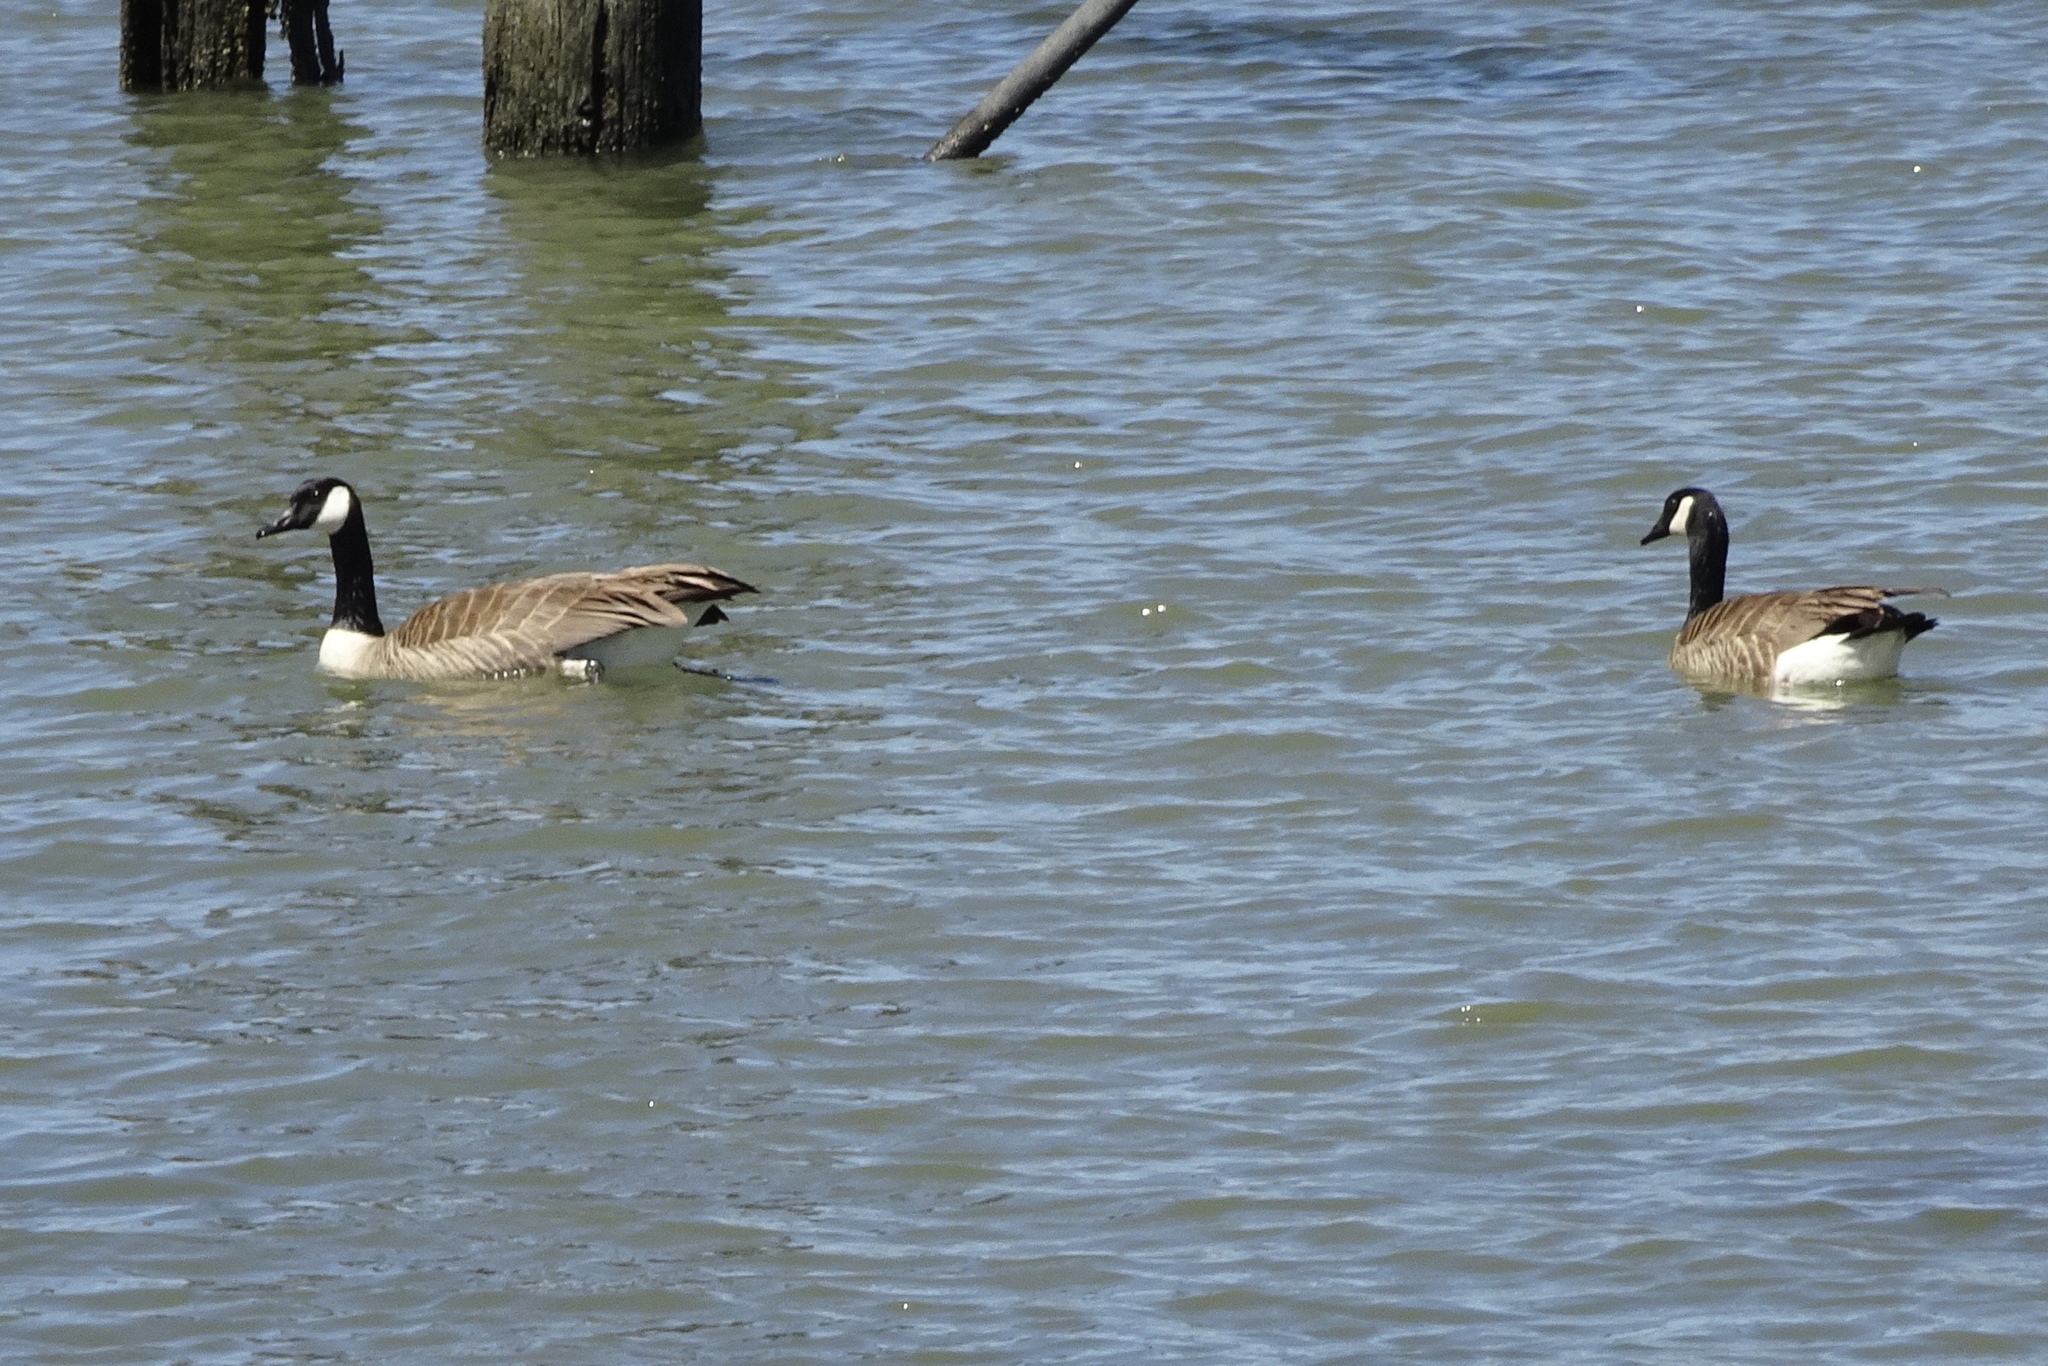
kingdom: Animalia
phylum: Chordata
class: Aves
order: Anseriformes
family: Anatidae
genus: Branta
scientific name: Branta canadensis
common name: Canada goose
